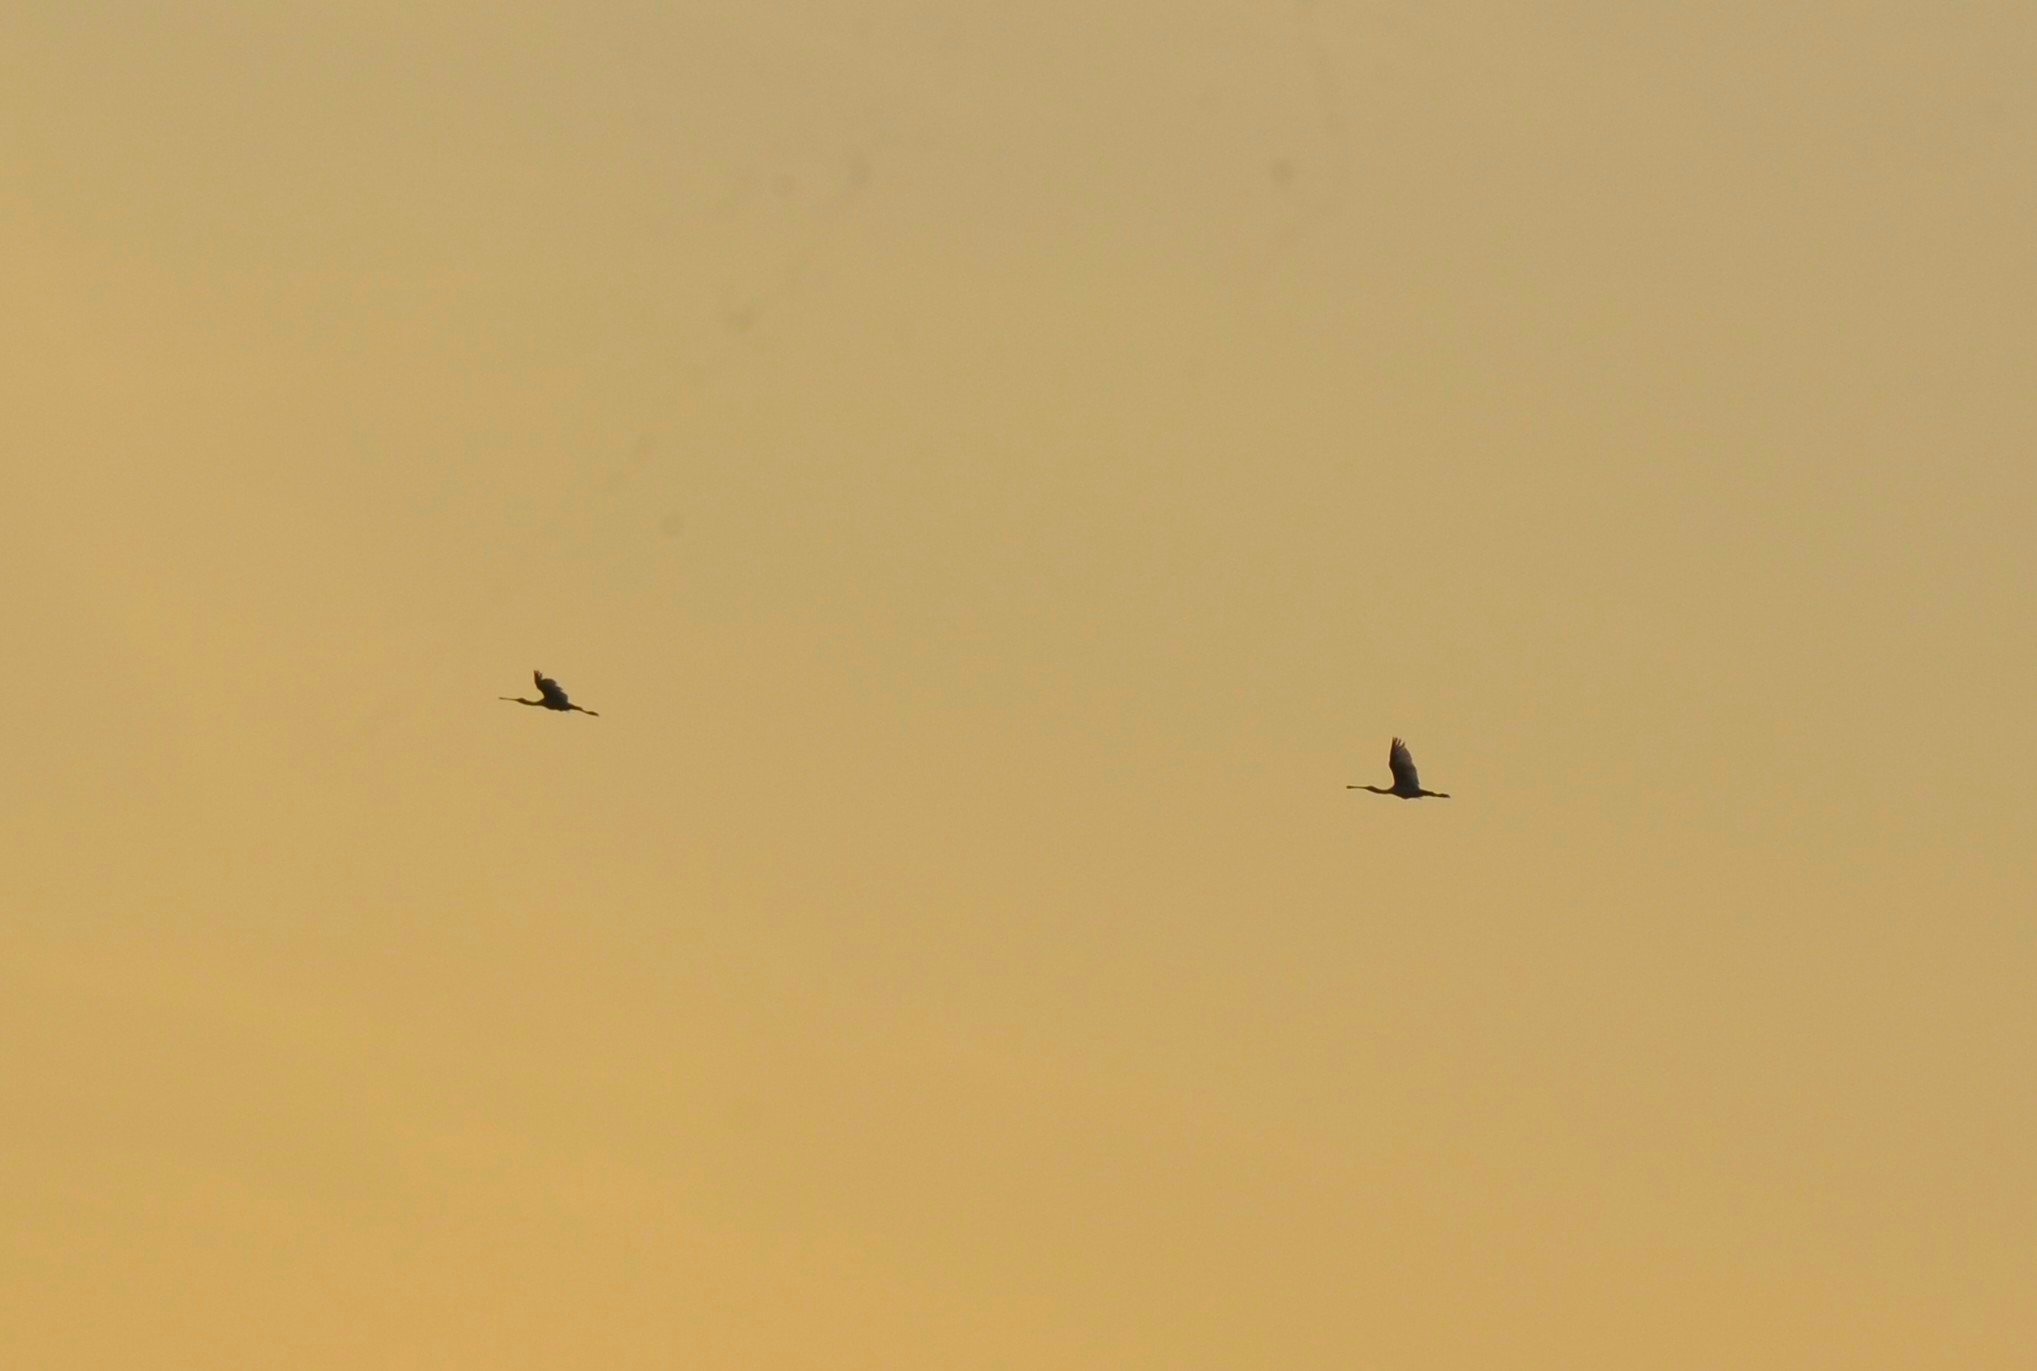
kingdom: Animalia
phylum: Chordata
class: Aves
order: Pelecaniformes
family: Threskiornithidae
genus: Platalea
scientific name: Platalea leucorodia
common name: Eurasian spoonbill
